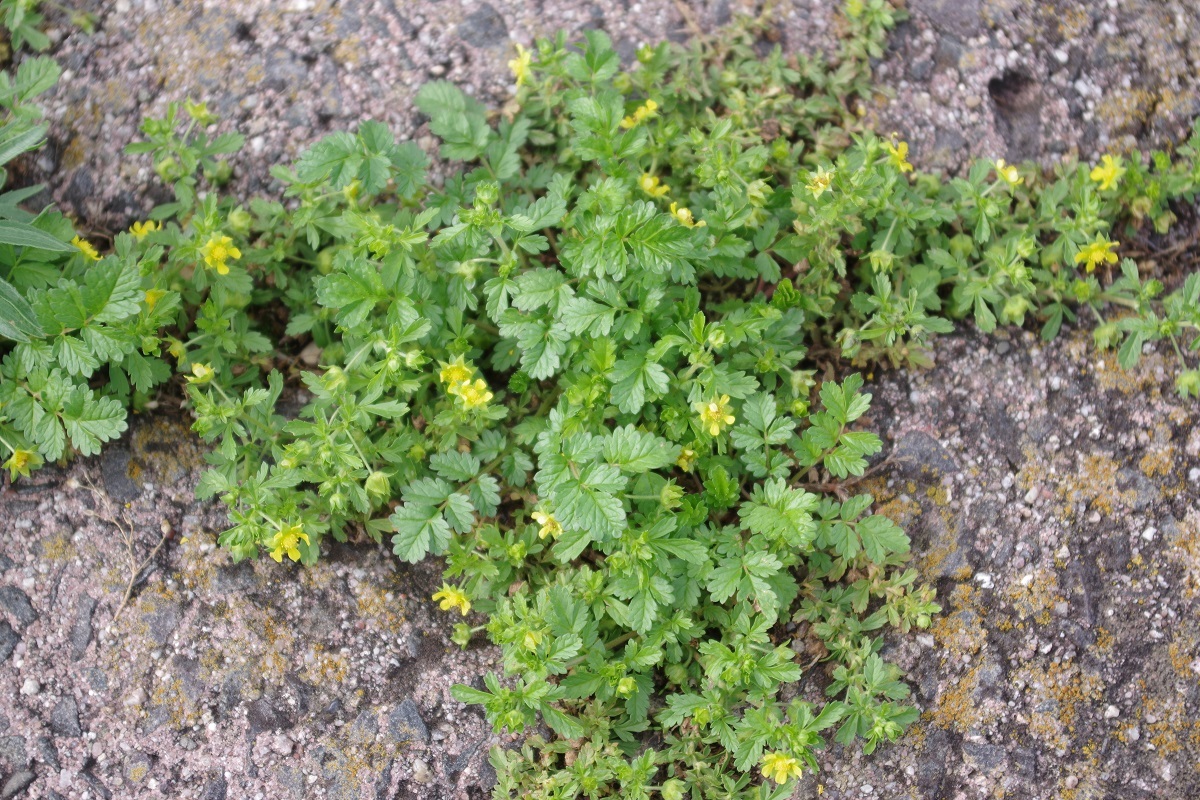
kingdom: Plantae
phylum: Tracheophyta
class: Magnoliopsida
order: Rosales
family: Rosaceae
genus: Potentilla
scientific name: Potentilla supina
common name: Prostrate cinquefoil
